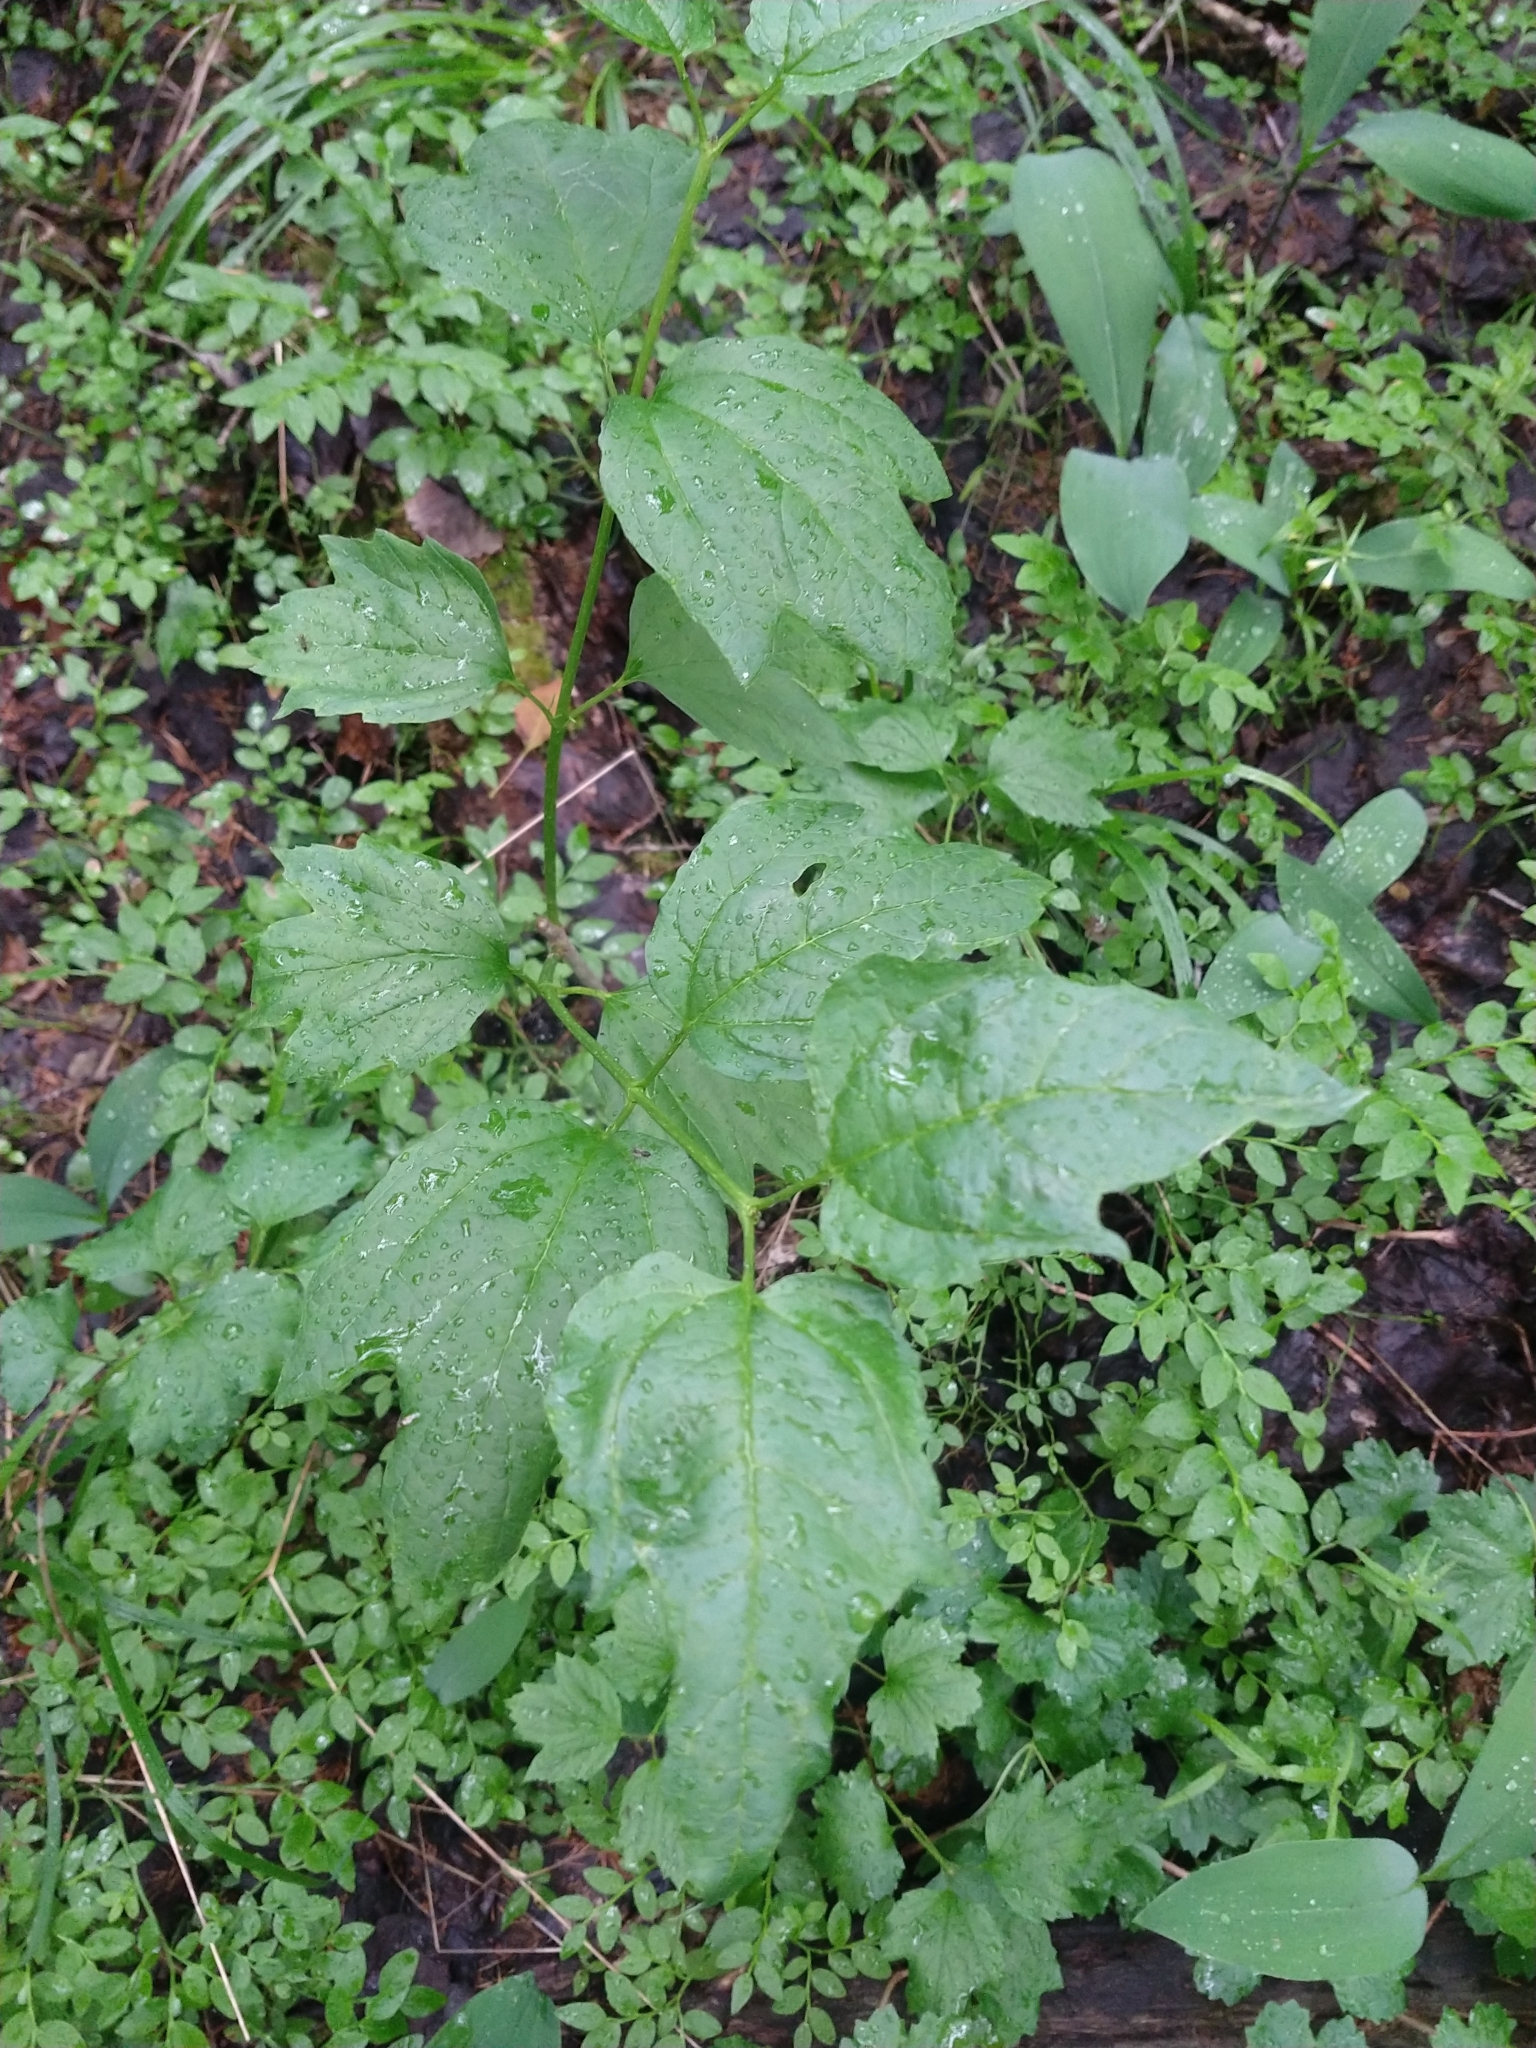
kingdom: Plantae
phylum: Tracheophyta
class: Magnoliopsida
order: Dipsacales
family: Viburnaceae
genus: Viburnum
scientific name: Viburnum opulus
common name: Guelder-rose
